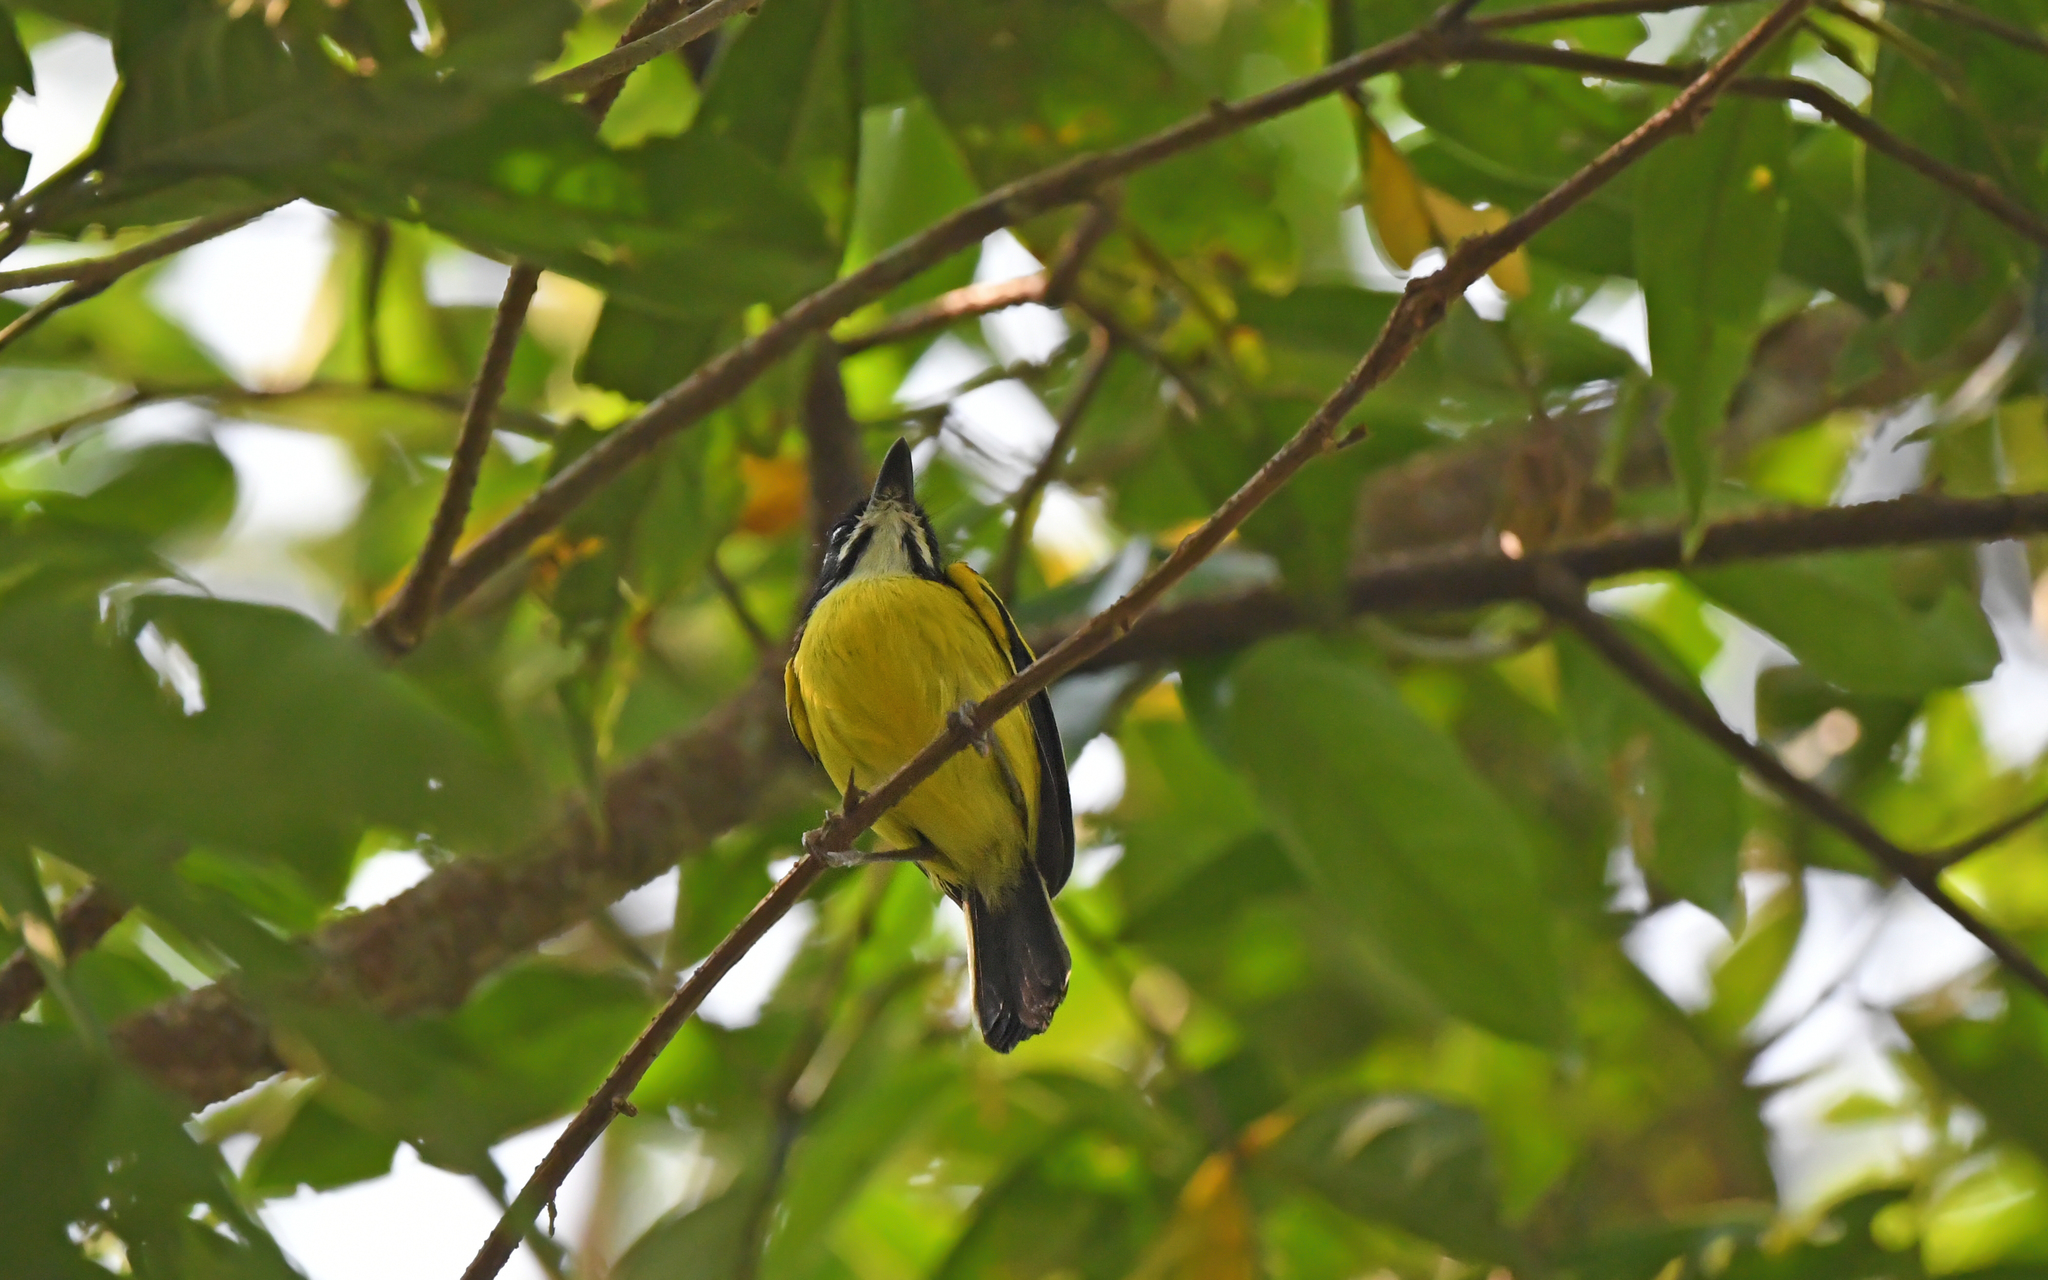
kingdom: Animalia
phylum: Chordata
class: Aves
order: Passeriformes
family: Tyrannidae
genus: Poecilotriccus
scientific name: Poecilotriccus calopterus
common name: Golden-winged tody-flycatcher
